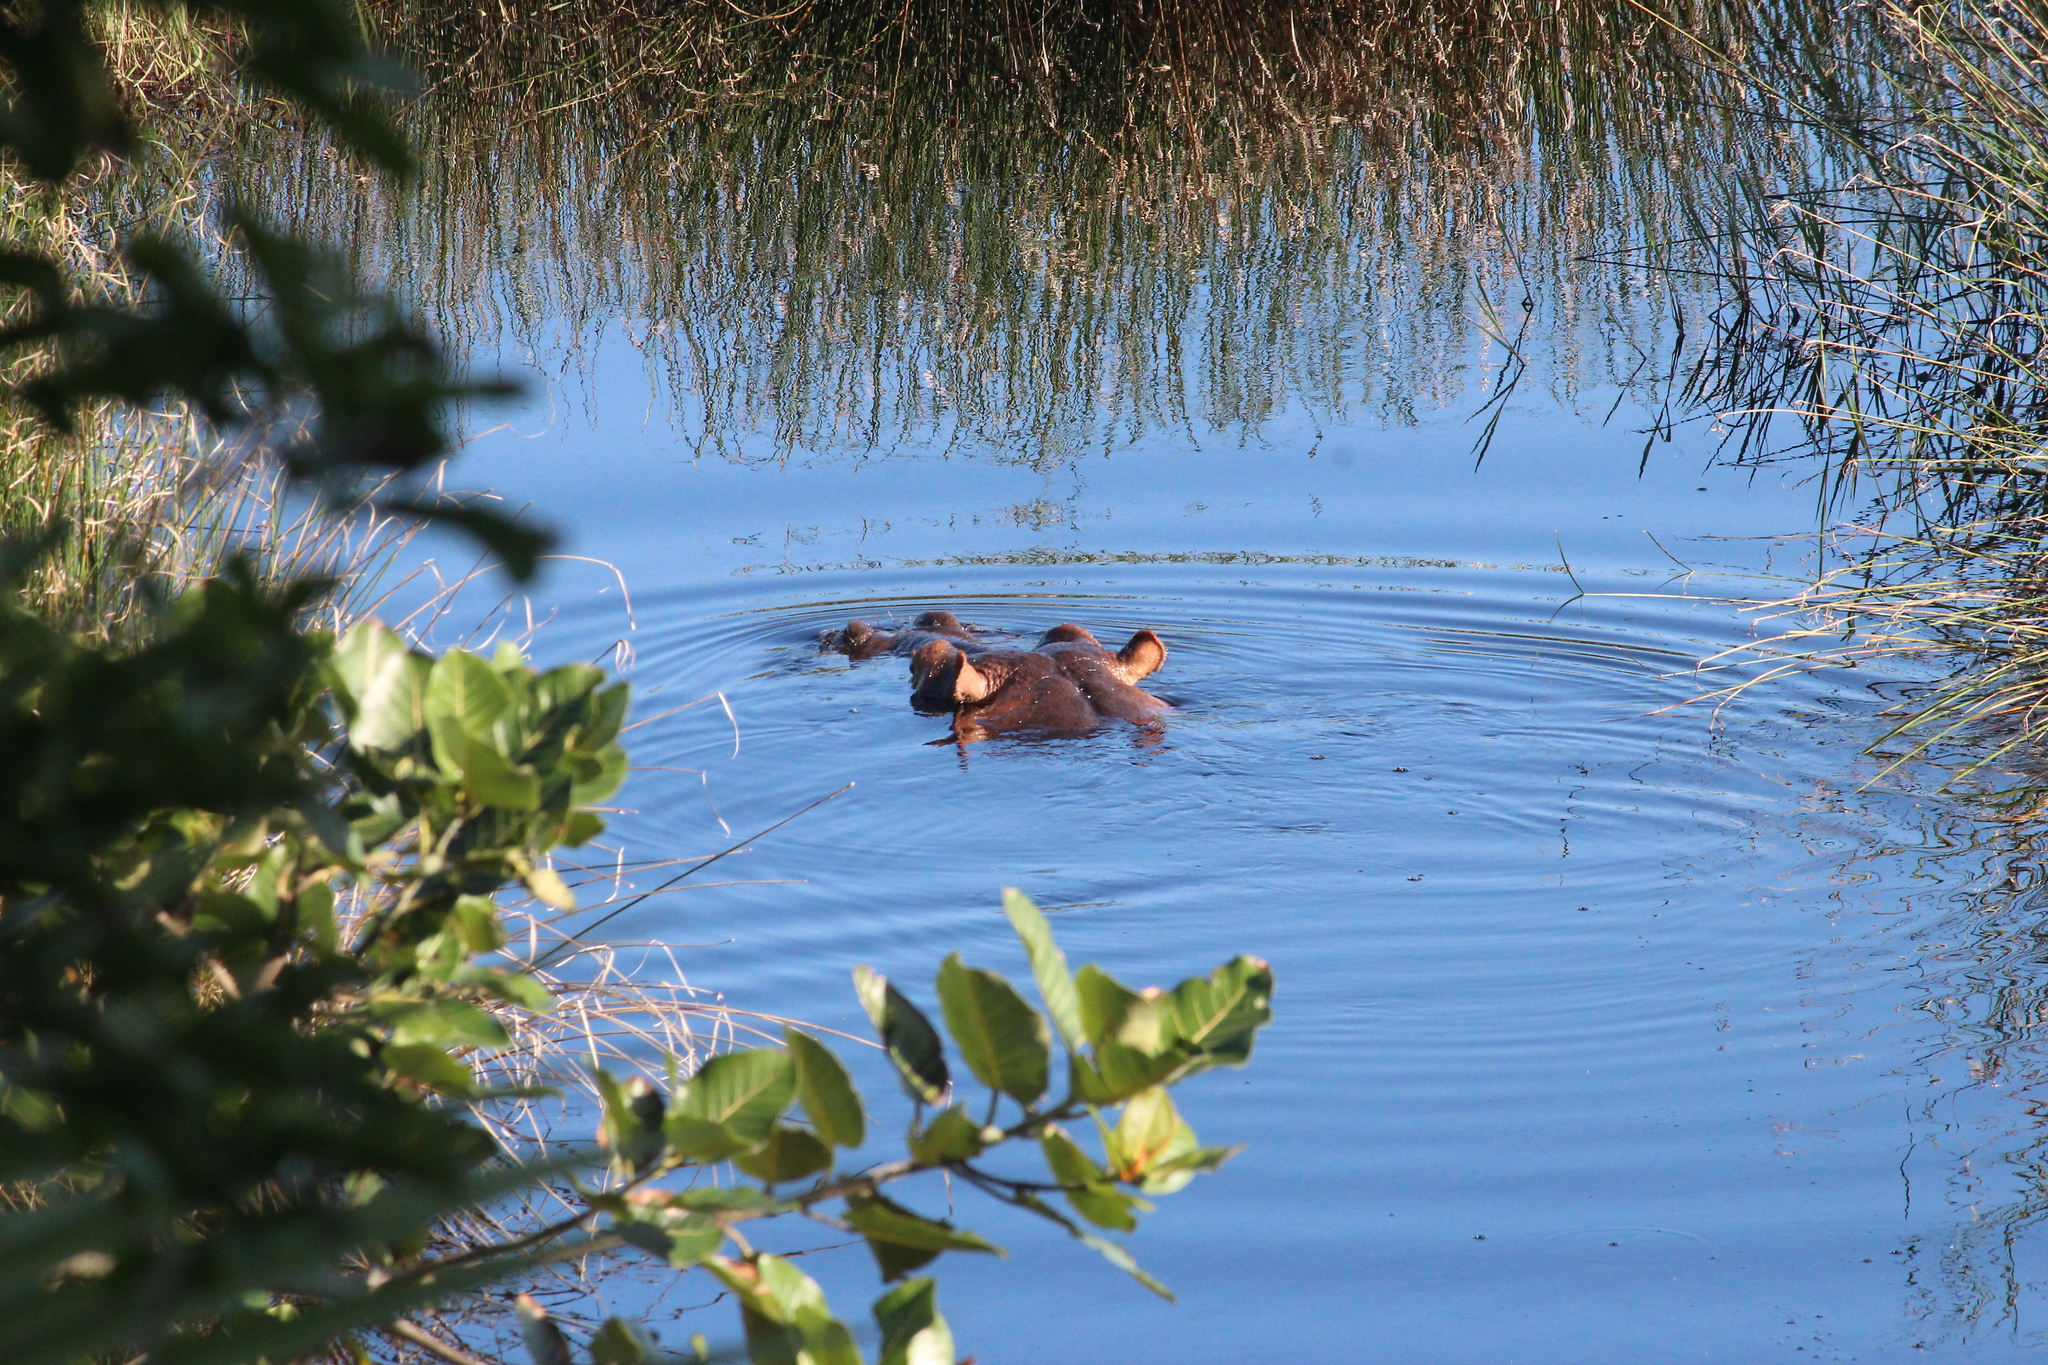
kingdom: Animalia
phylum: Chordata
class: Mammalia
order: Artiodactyla
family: Hippopotamidae
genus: Hippopotamus
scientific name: Hippopotamus amphibius
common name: Common hippopotamus
